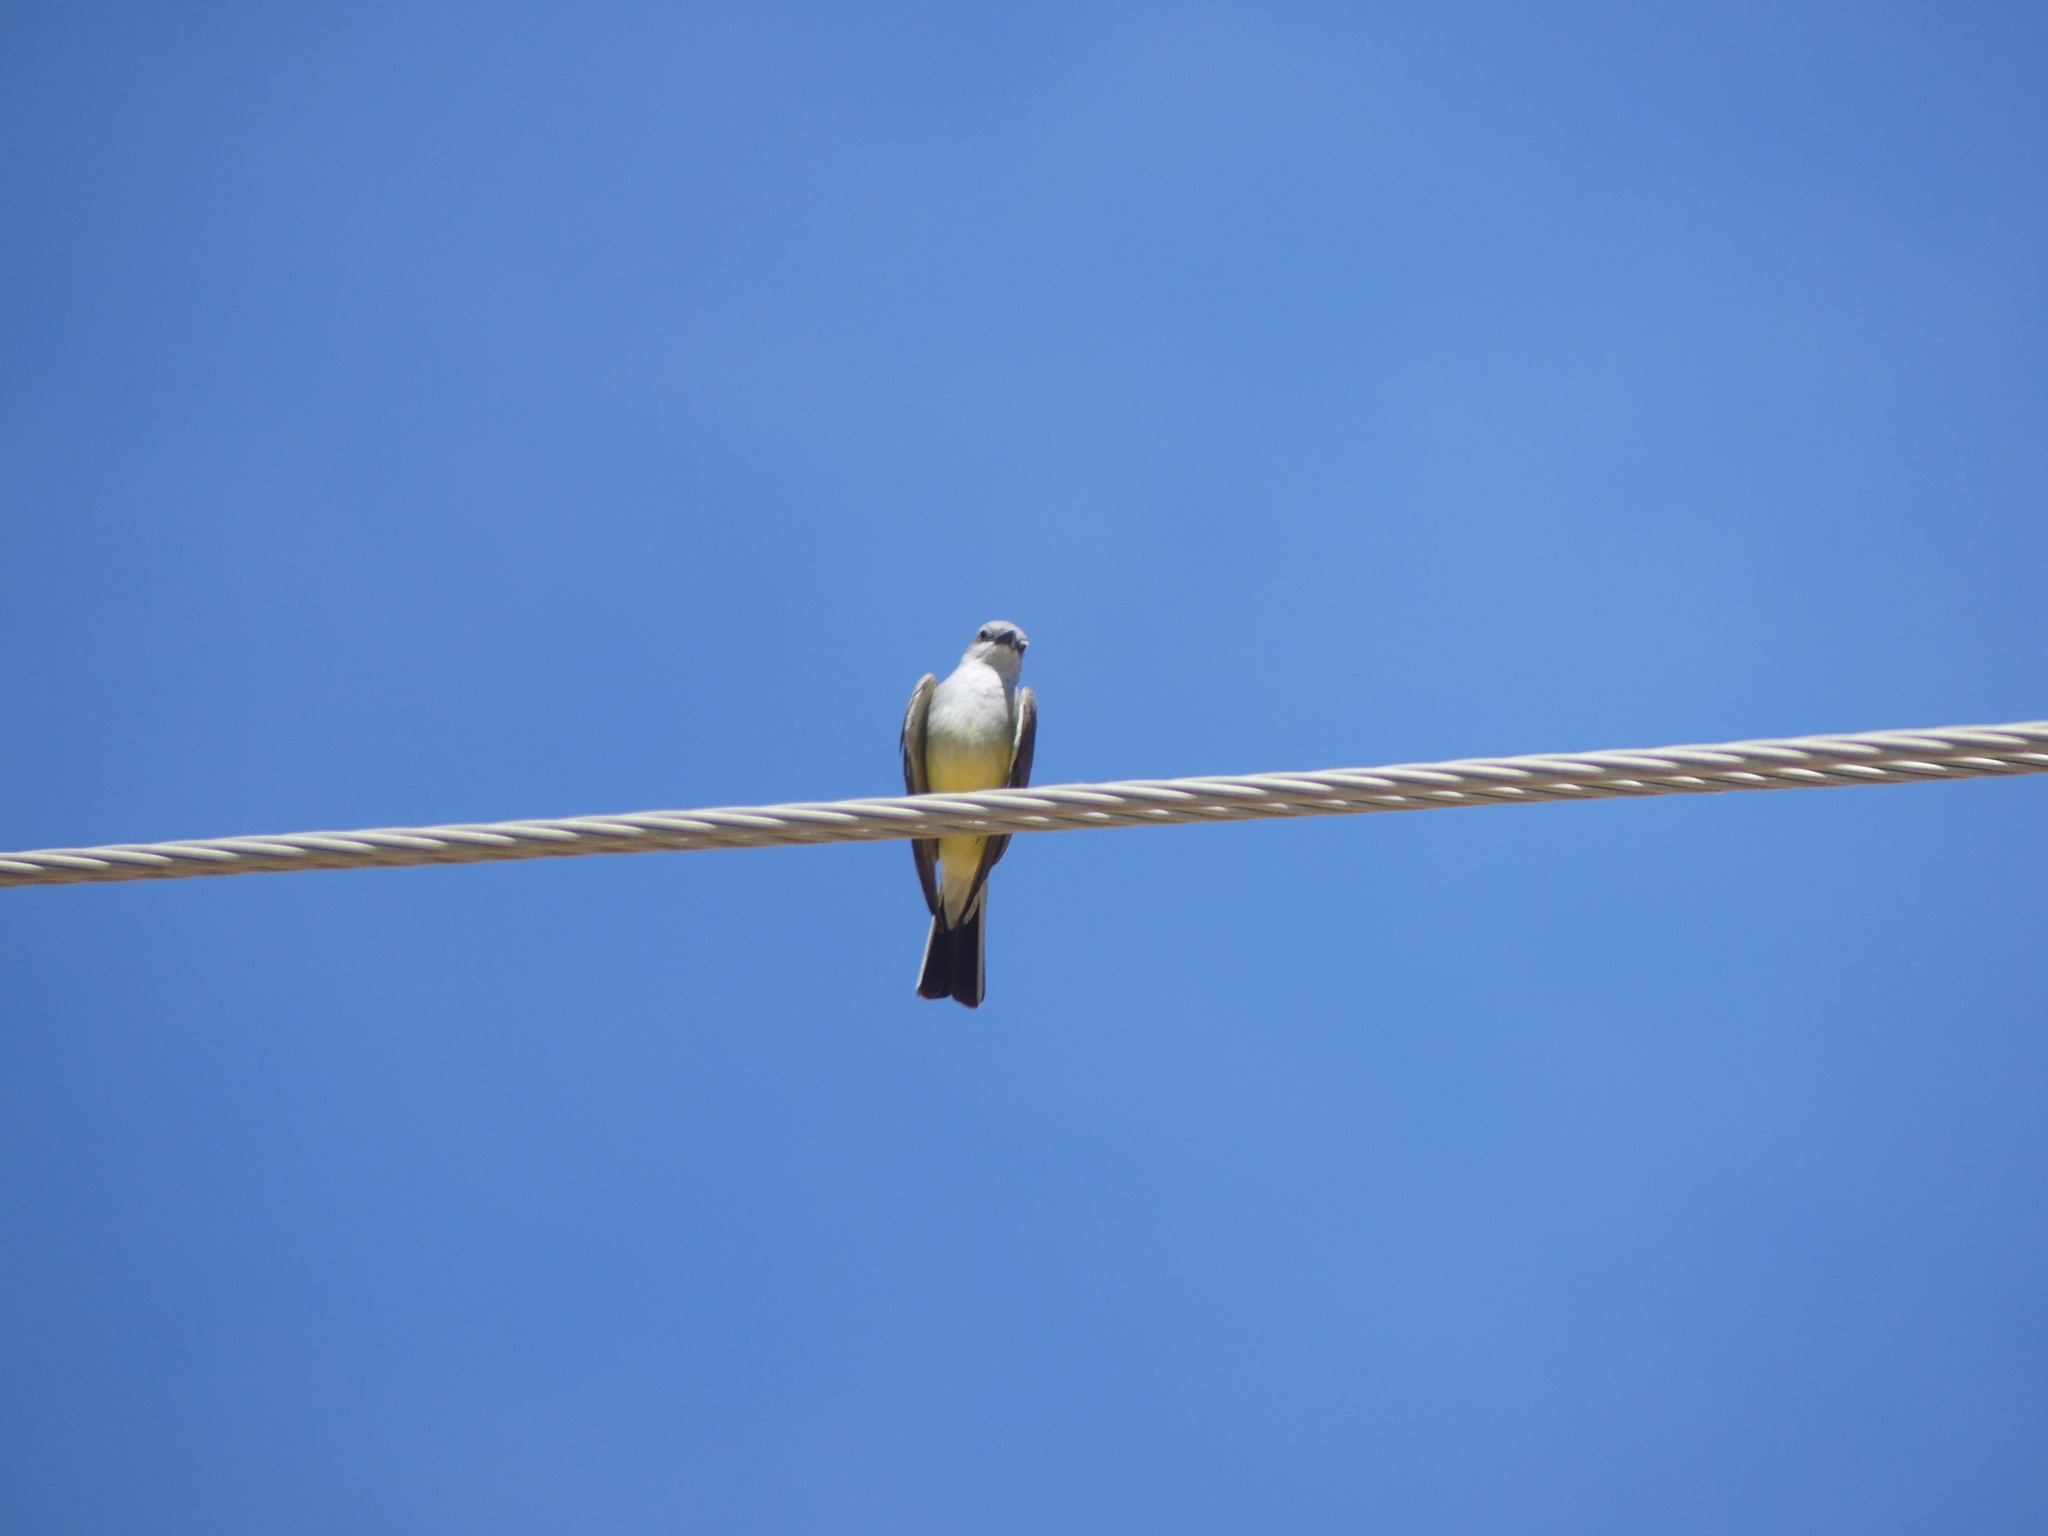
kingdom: Animalia
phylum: Chordata
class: Aves
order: Passeriformes
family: Tyrannidae
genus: Tyrannus
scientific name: Tyrannus verticalis
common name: Western kingbird
